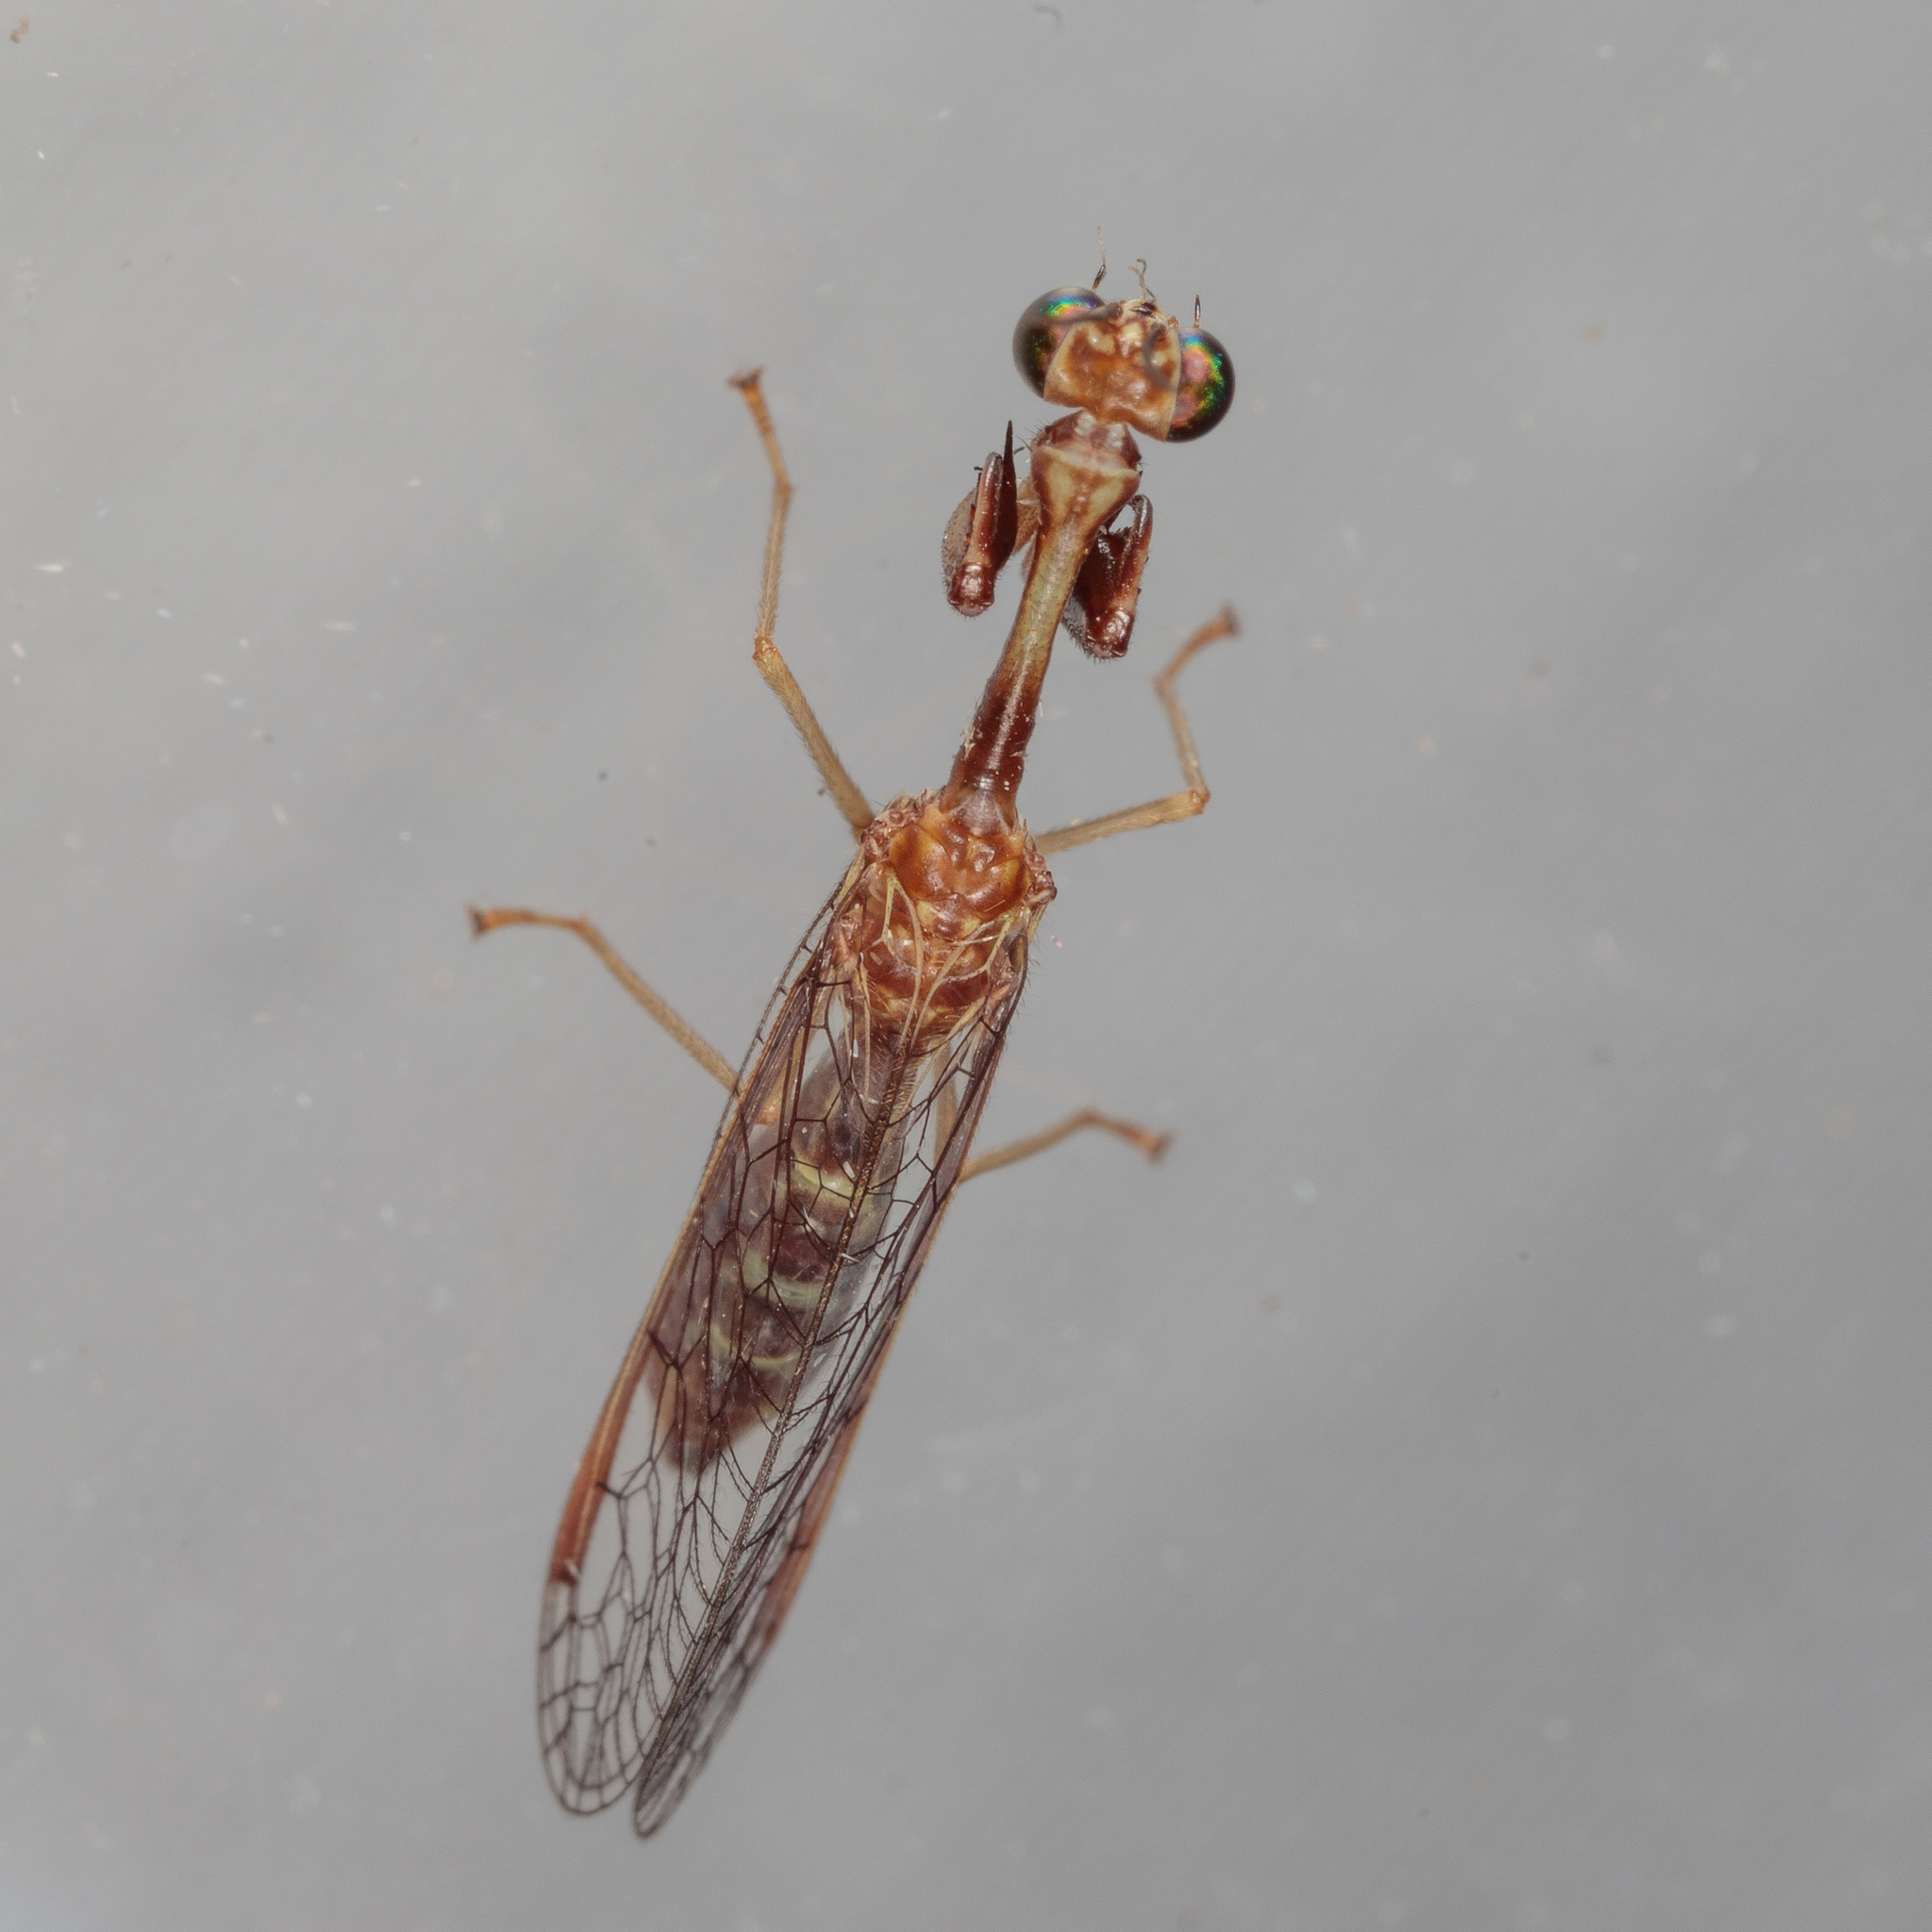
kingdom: Animalia
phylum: Arthropoda
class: Insecta
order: Neuroptera
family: Mantispidae
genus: Leptomantispa
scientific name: Leptomantispa pulchella
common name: Stevens's mantidfly
